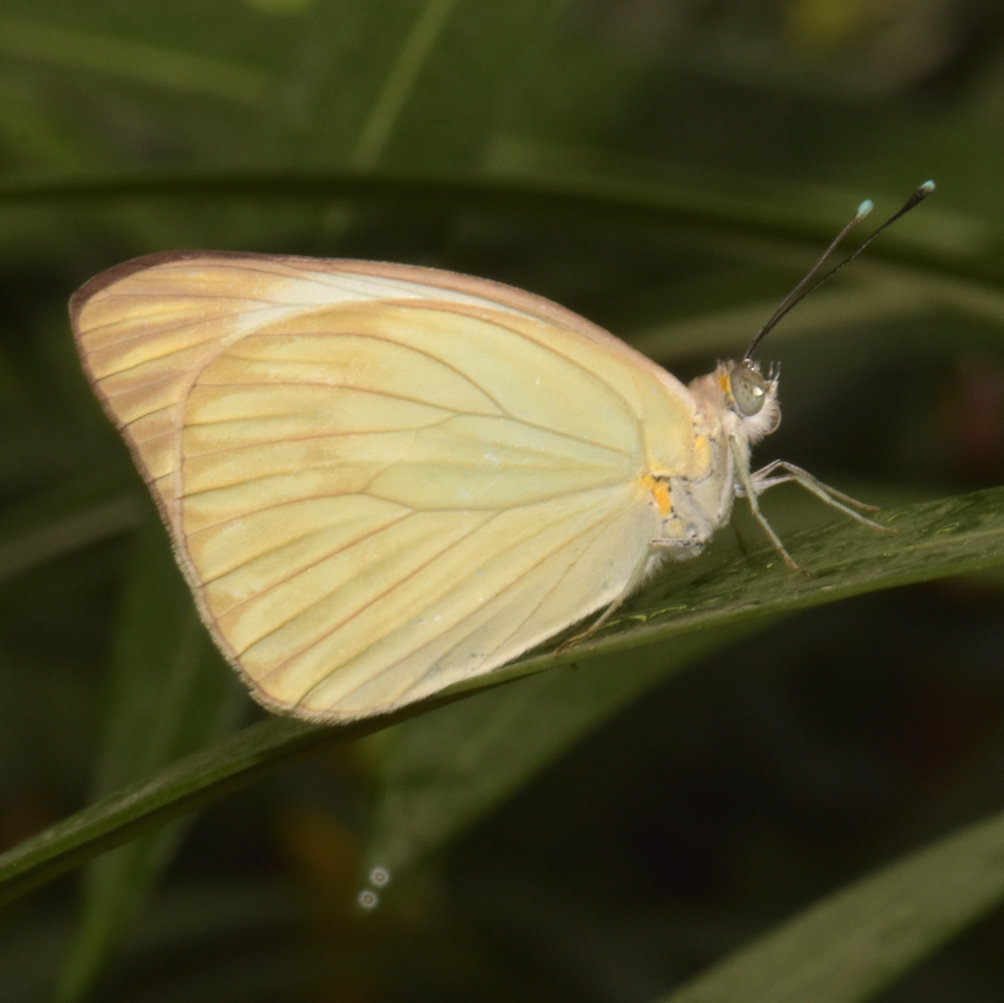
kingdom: Animalia
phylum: Arthropoda
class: Insecta
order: Lepidoptera
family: Pieridae
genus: Ascia
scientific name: Ascia monuste
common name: Great southern white
